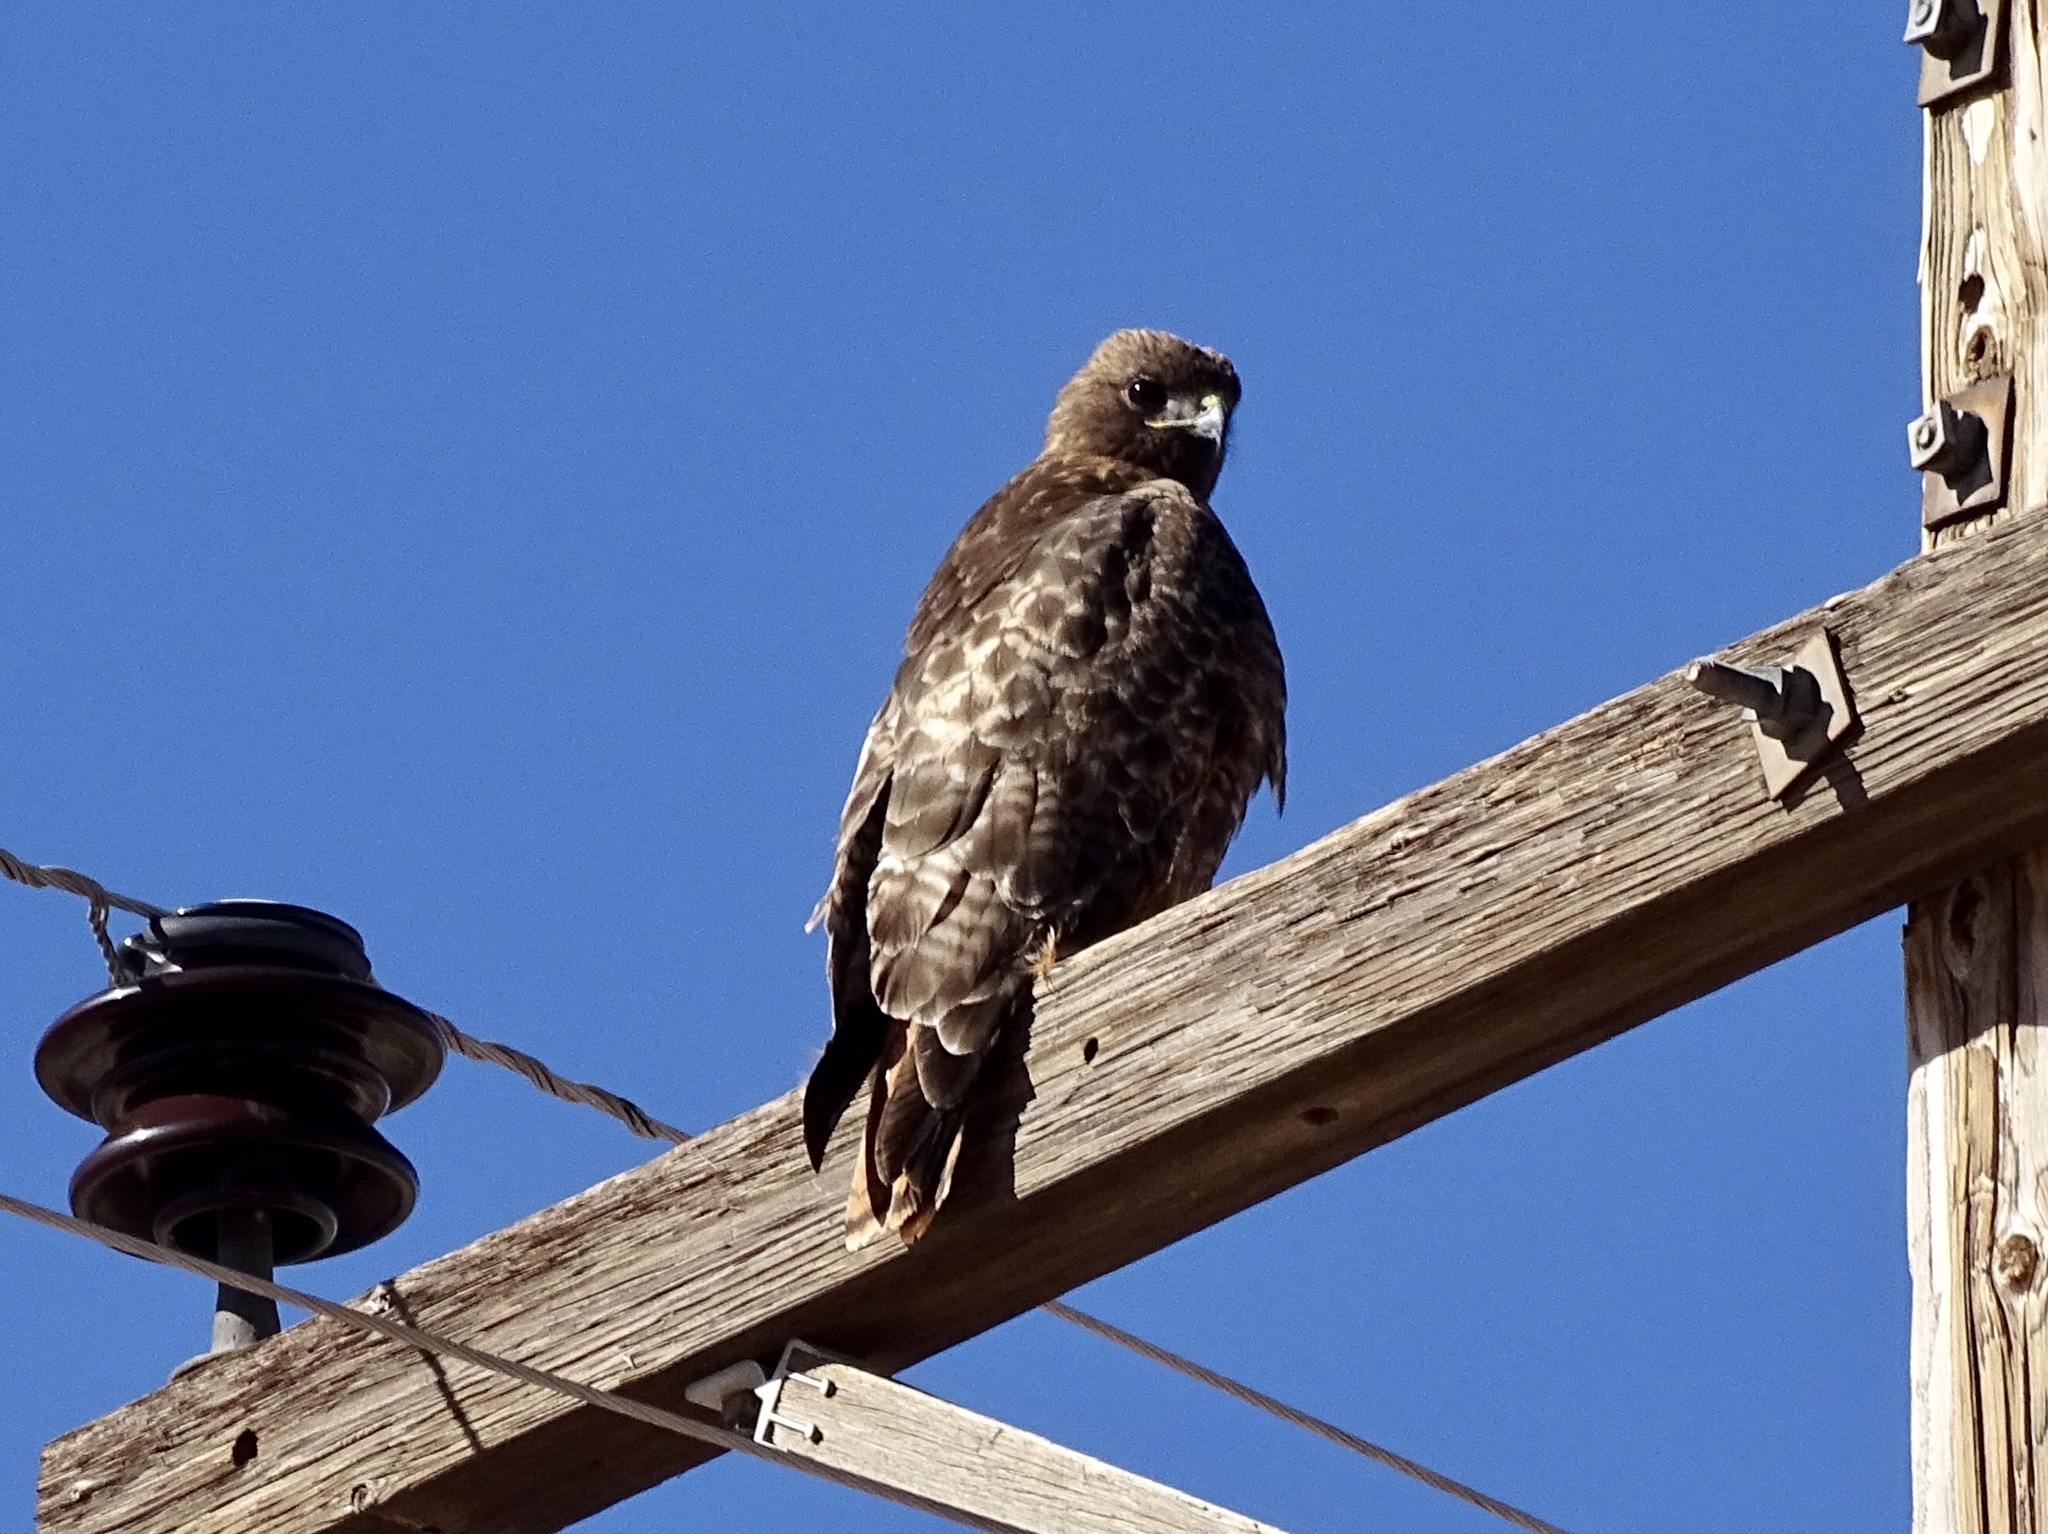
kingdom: Animalia
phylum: Chordata
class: Aves
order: Accipitriformes
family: Accipitridae
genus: Buteo
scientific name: Buteo jamaicensis
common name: Red-tailed hawk
